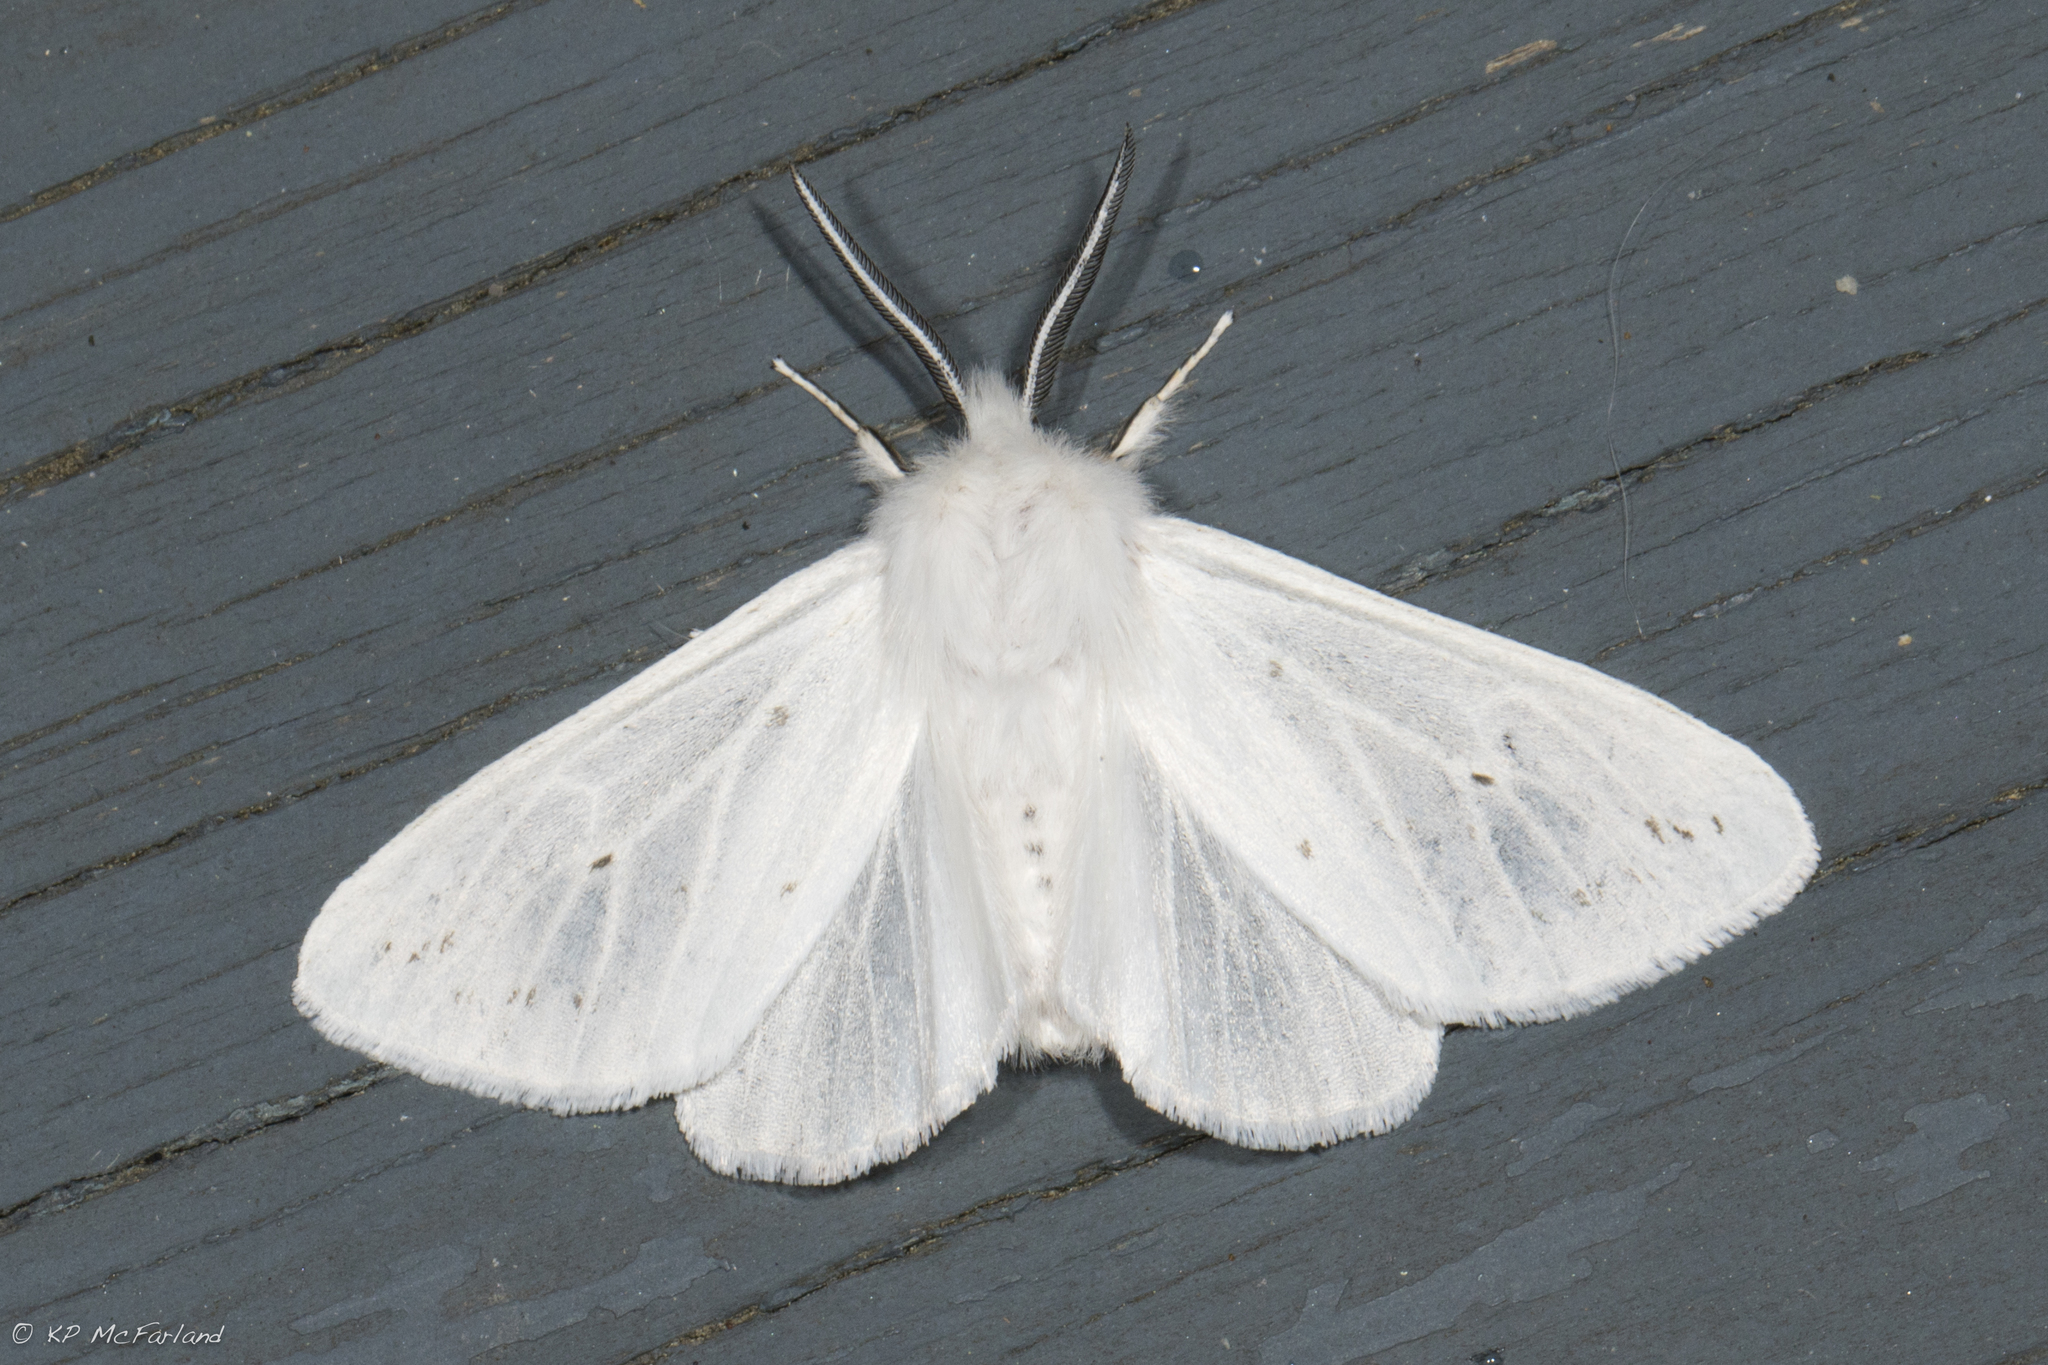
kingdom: Animalia
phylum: Arthropoda
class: Insecta
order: Lepidoptera
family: Erebidae
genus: Spilosoma
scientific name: Spilosoma congrua
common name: Agreeable tiger moth
